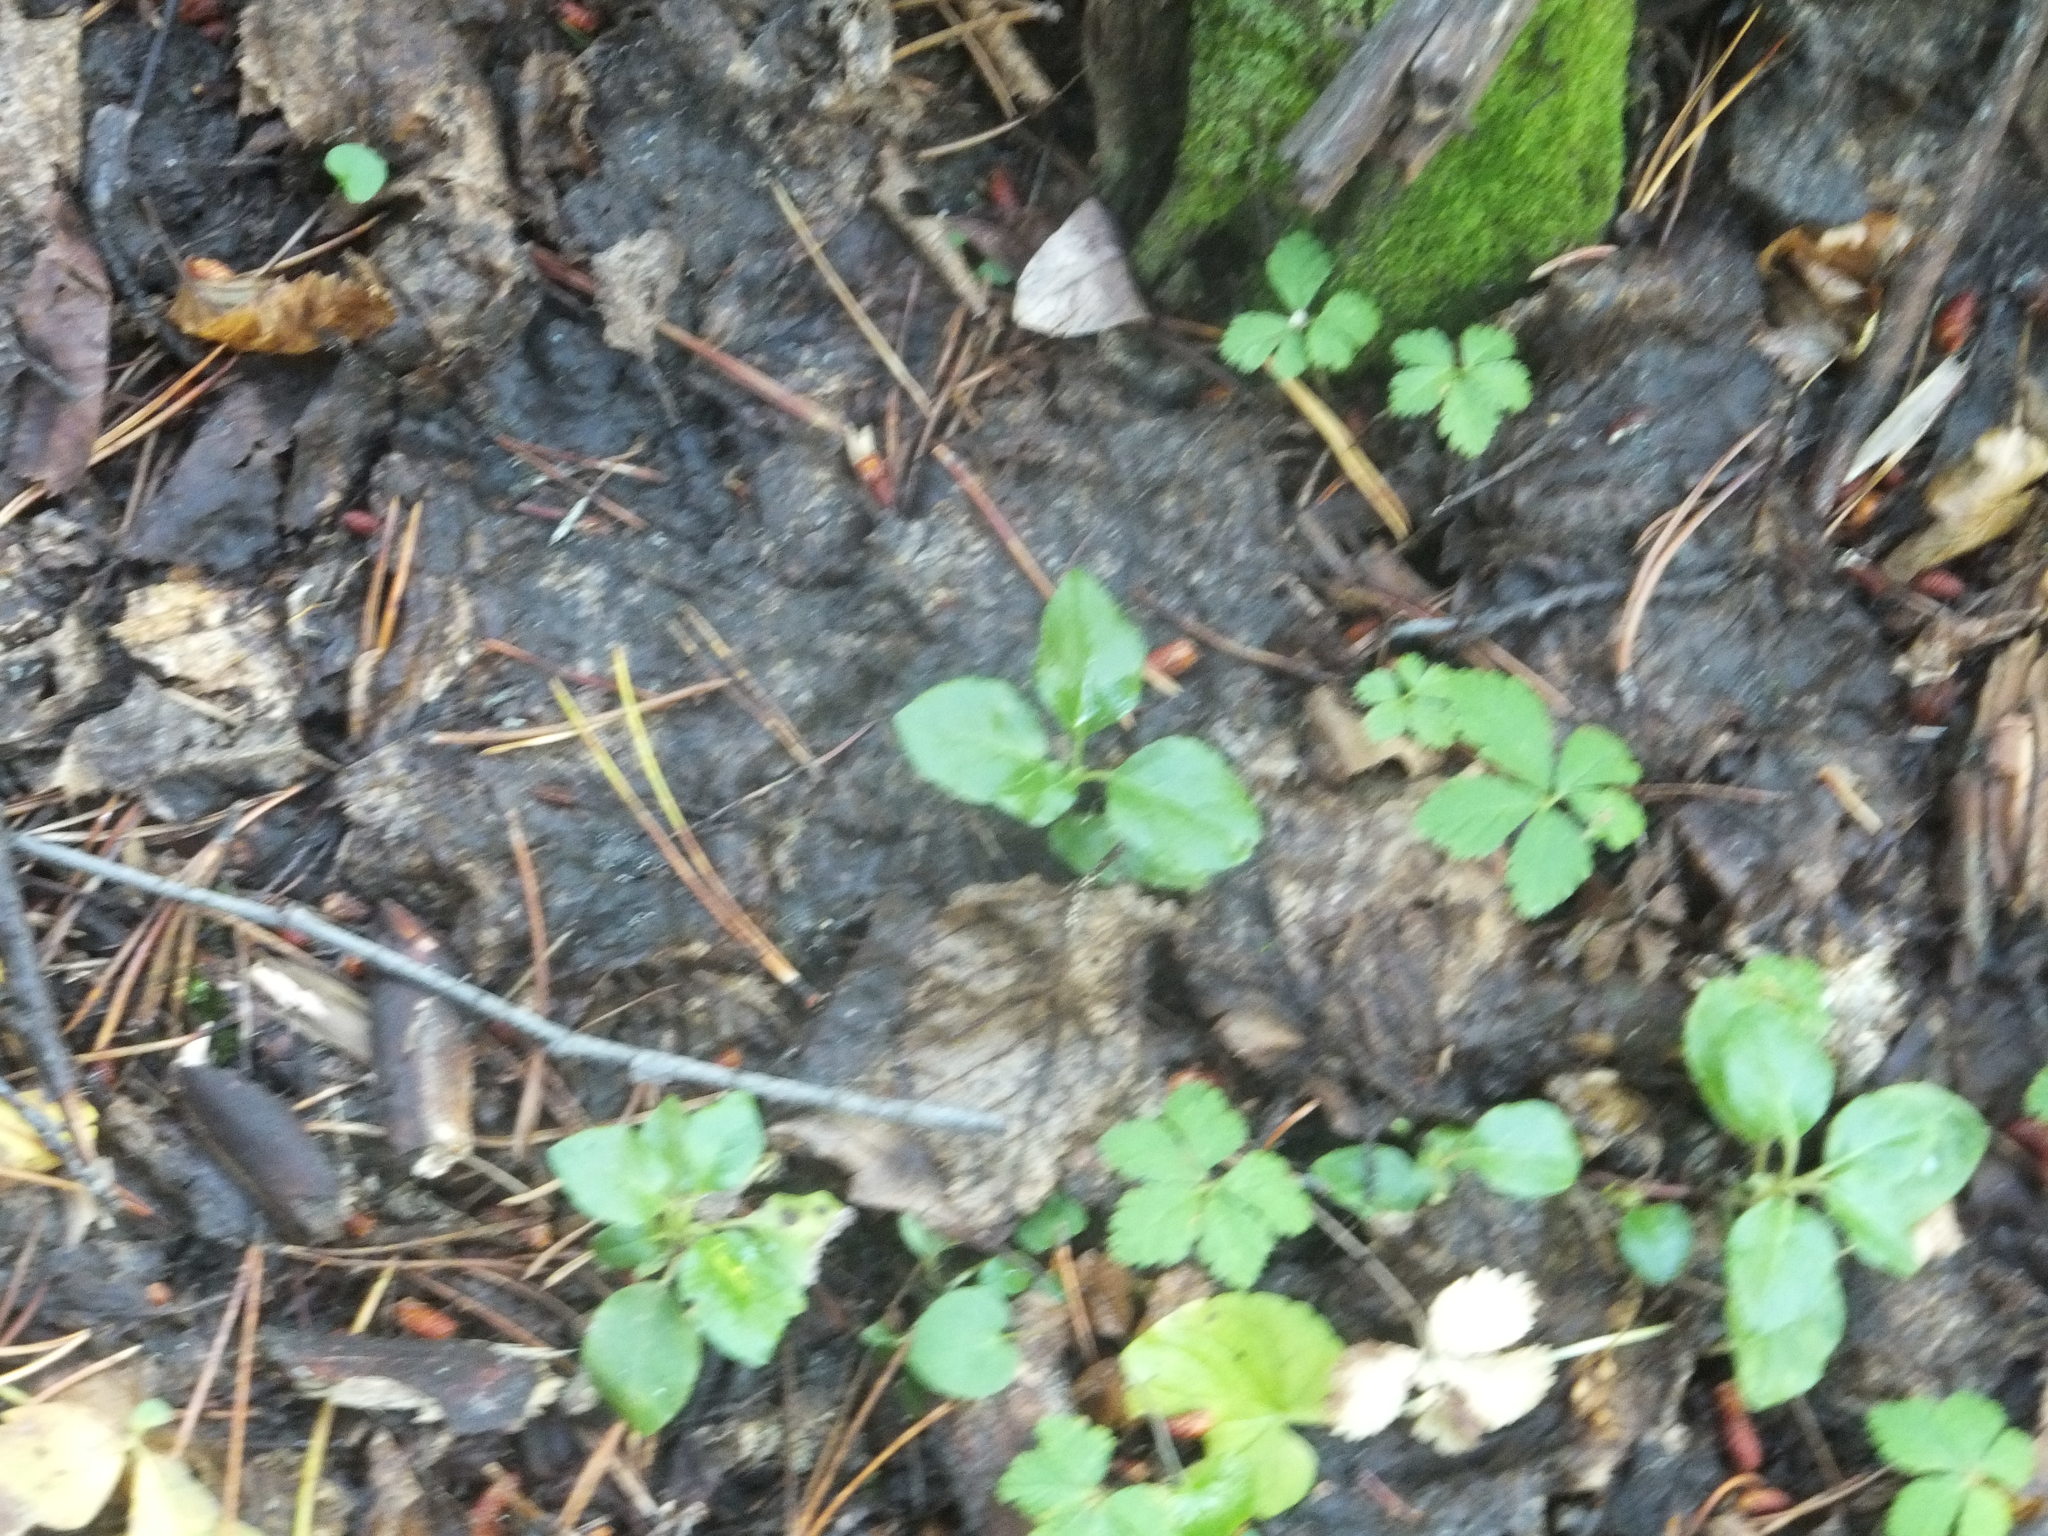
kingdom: Plantae
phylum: Tracheophyta
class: Magnoliopsida
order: Ericales
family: Ericaceae
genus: Orthilia
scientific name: Orthilia secunda
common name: One-sided orthilia
